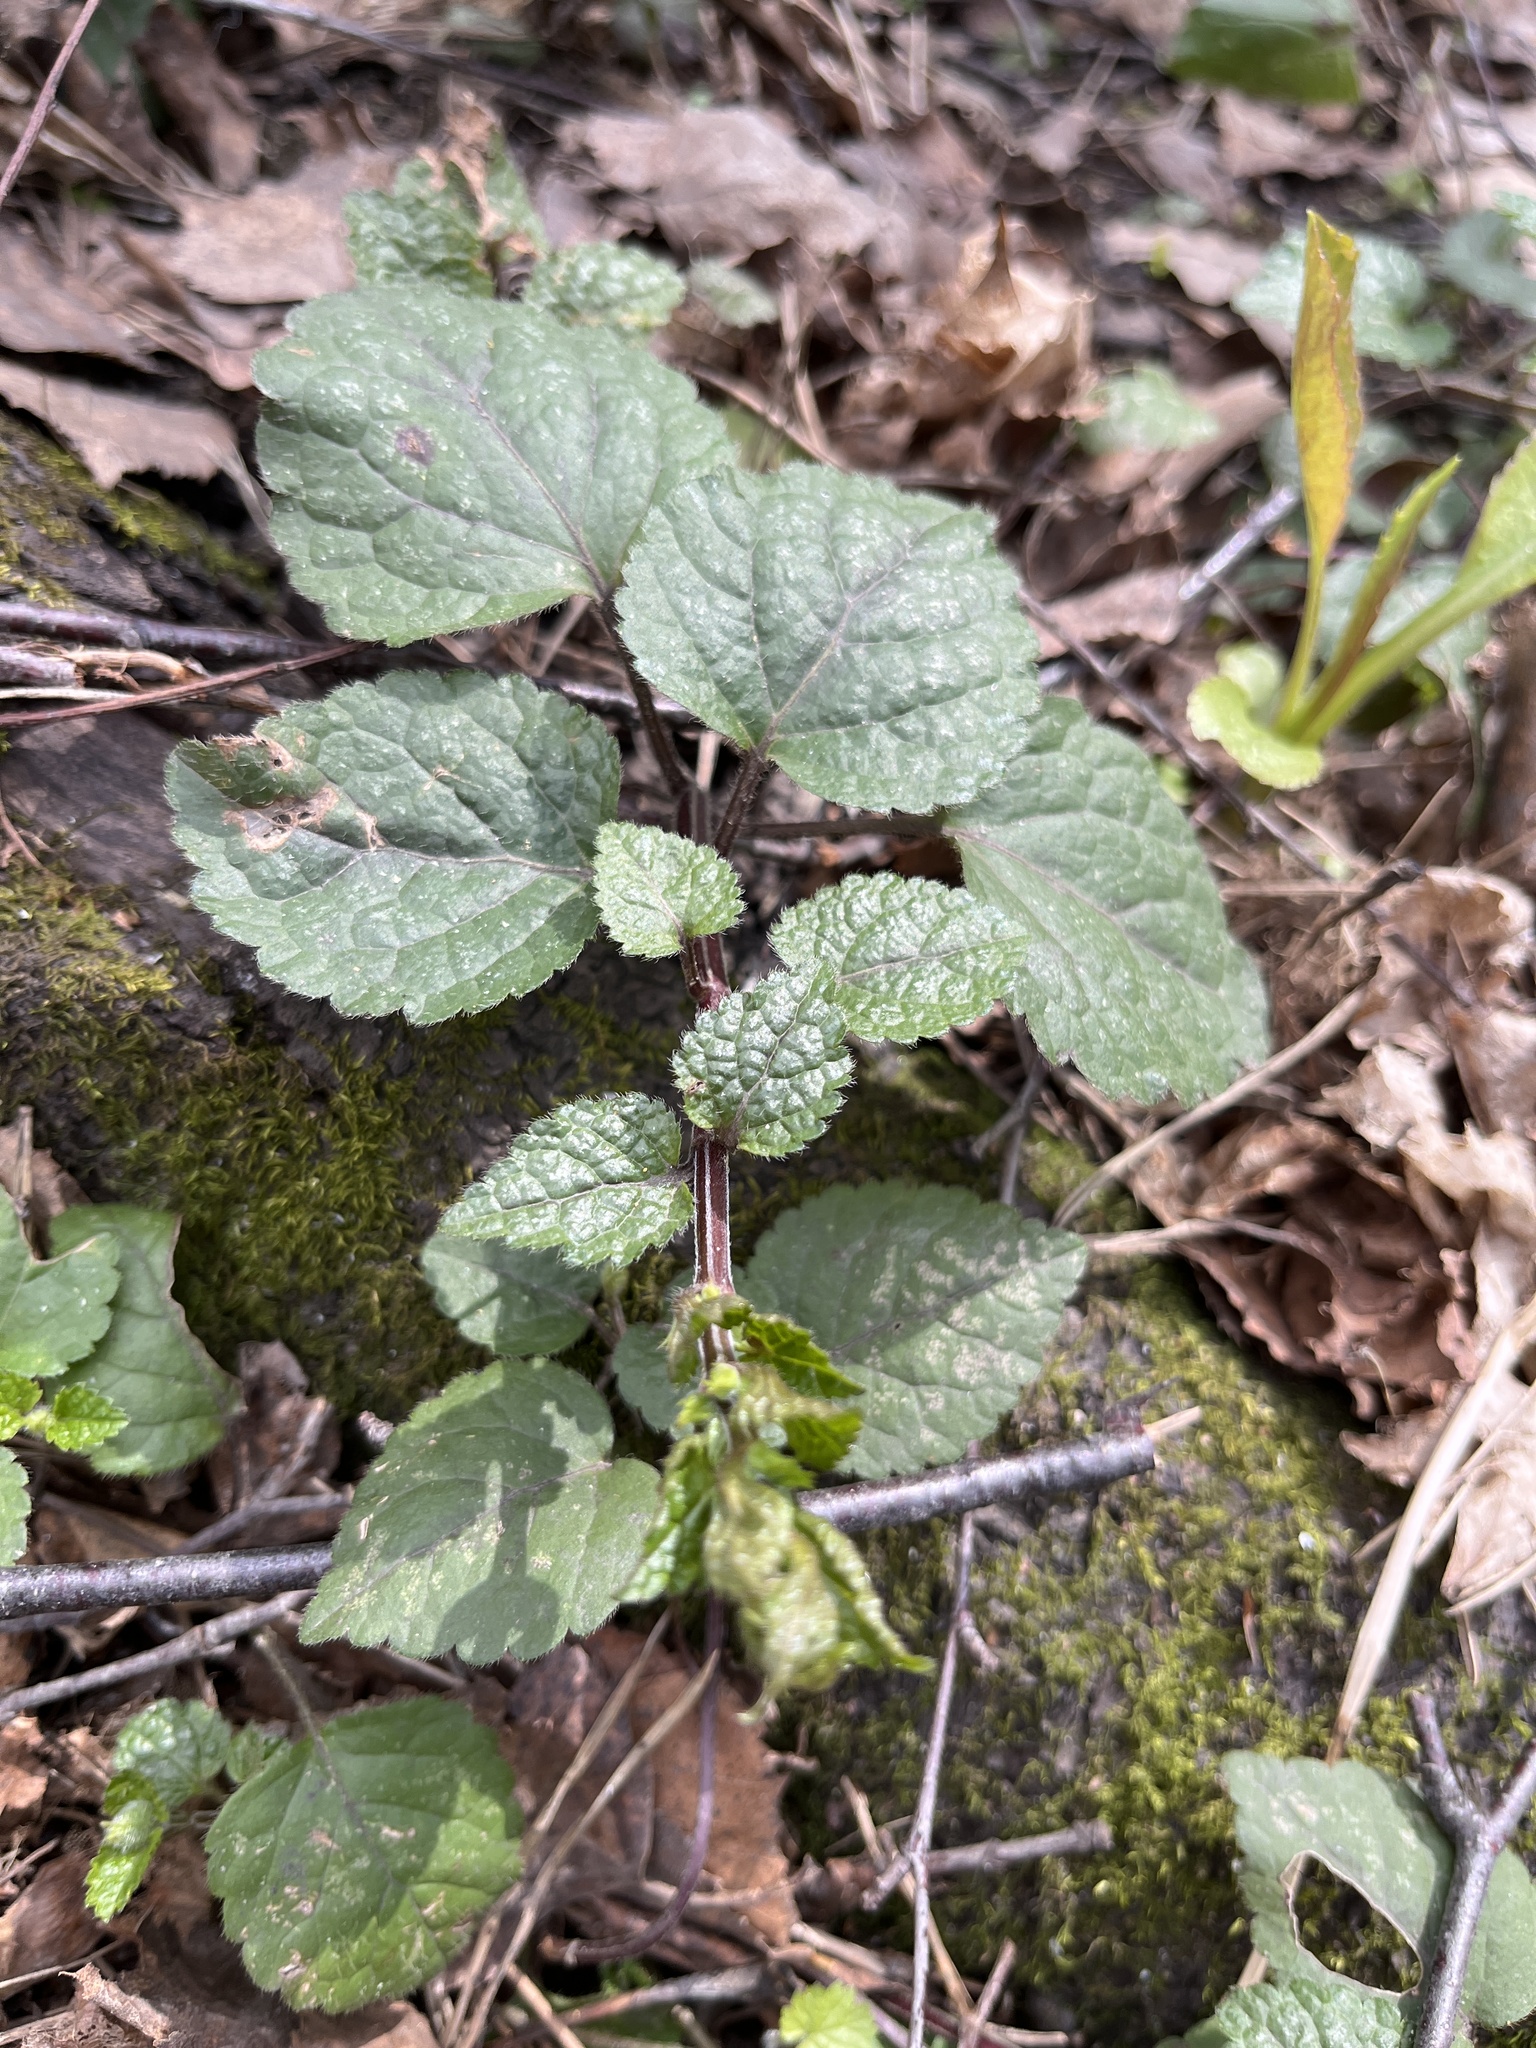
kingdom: Plantae
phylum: Tracheophyta
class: Magnoliopsida
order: Lamiales
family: Lamiaceae
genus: Lamium
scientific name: Lamium galeobdolon
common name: Yellow archangel
